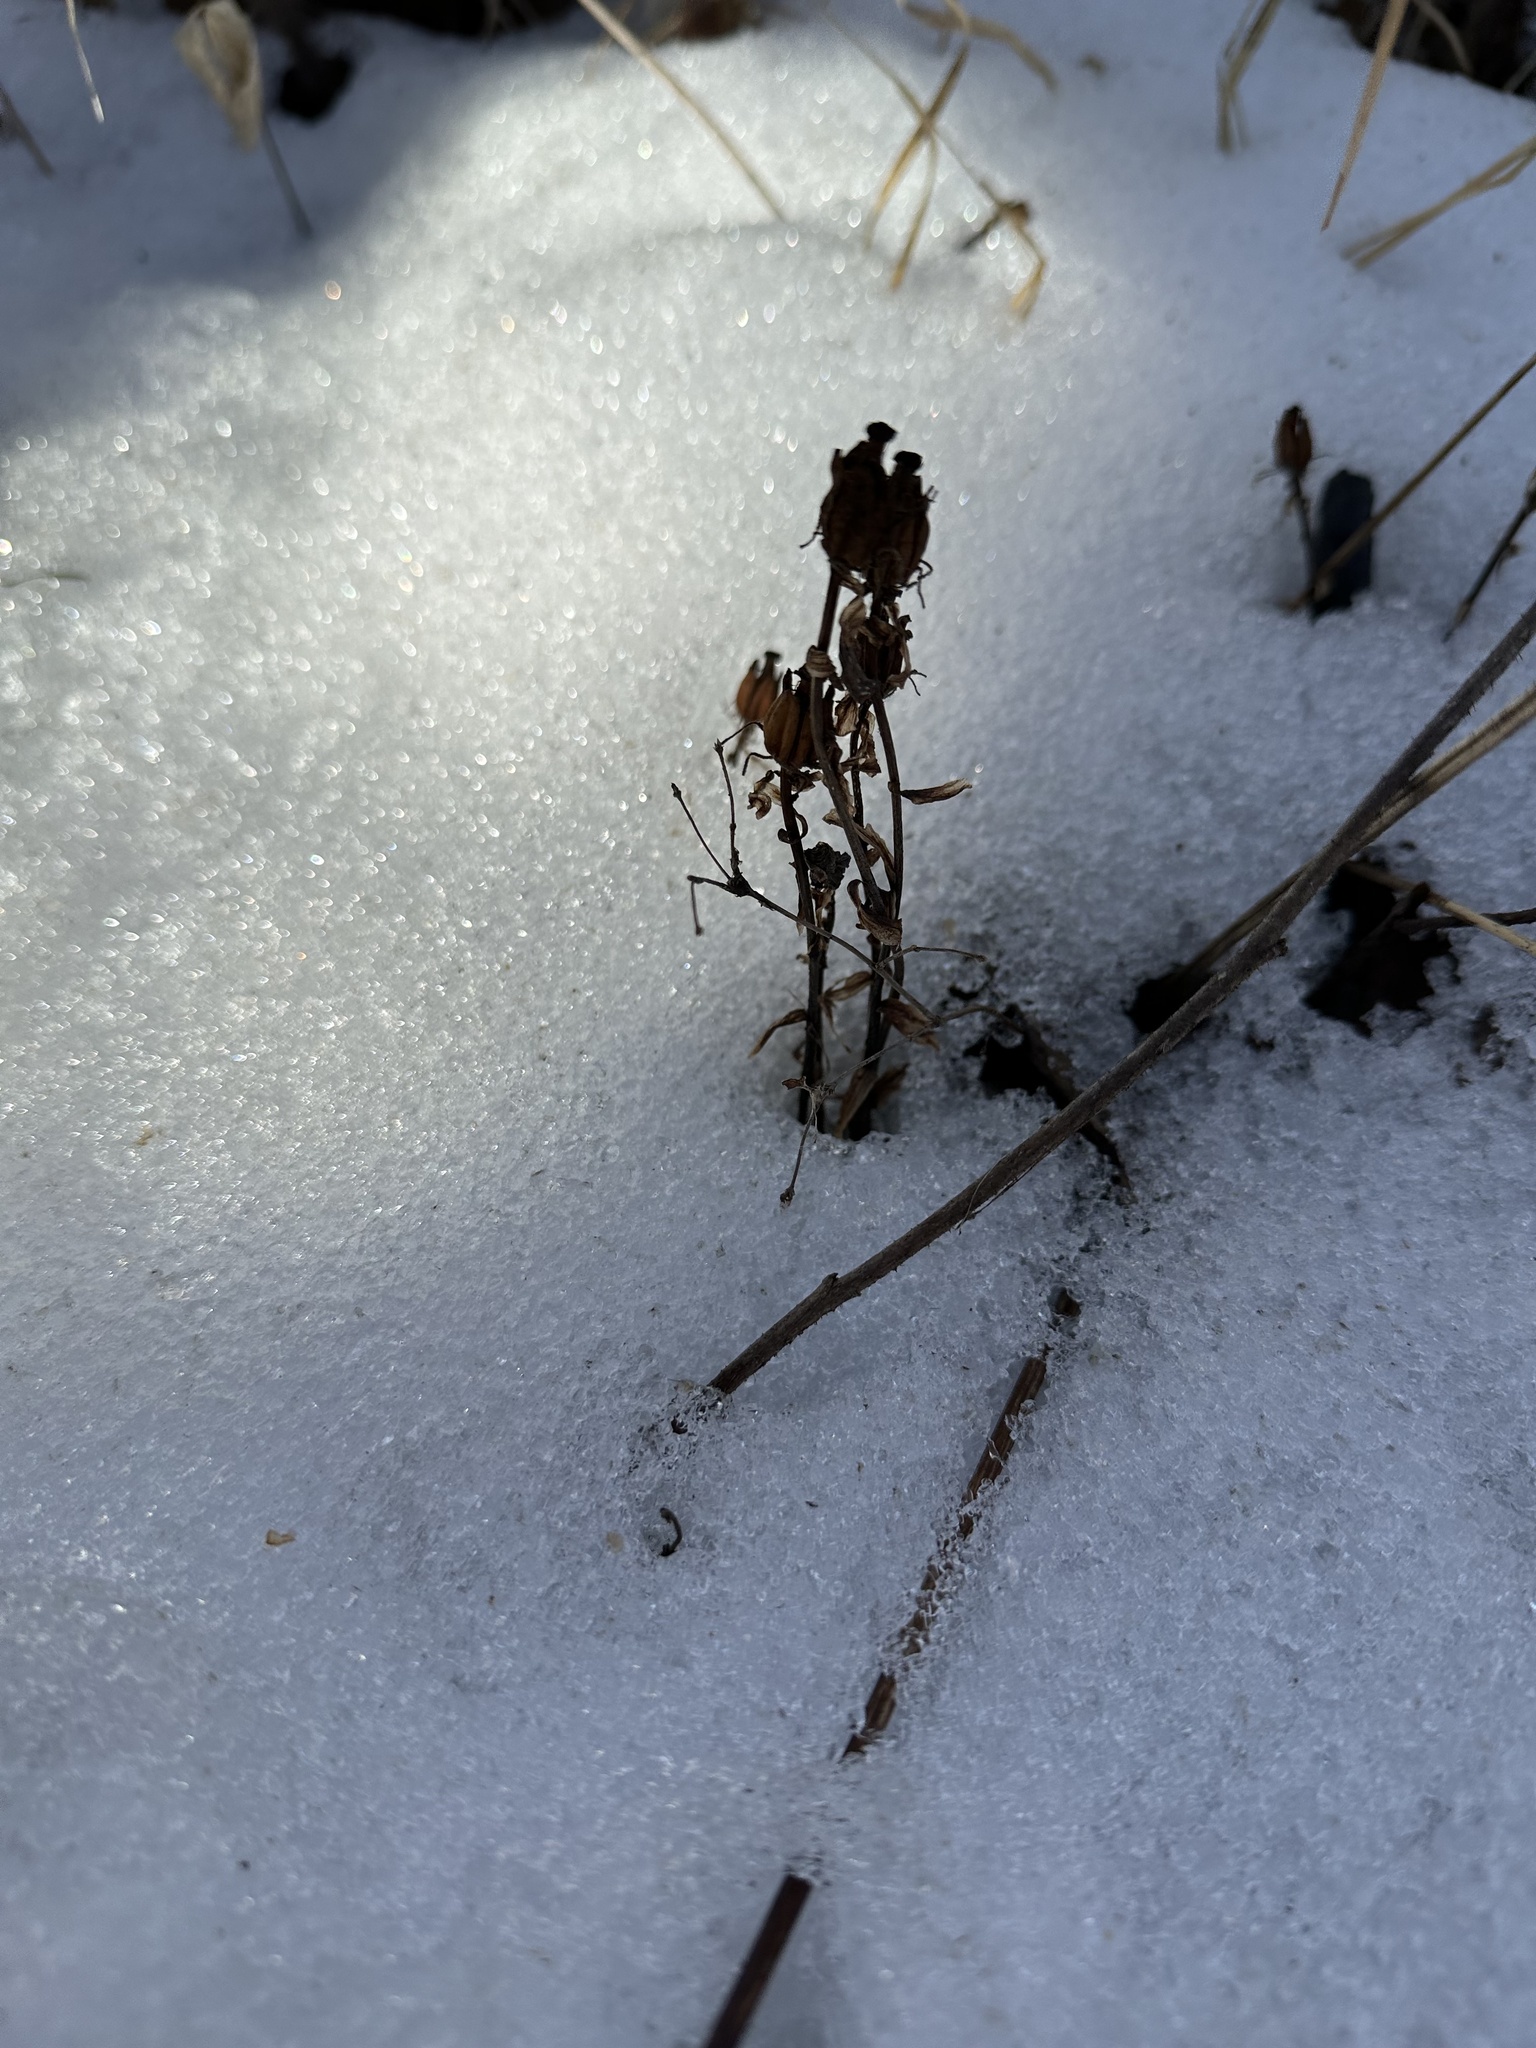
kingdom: Plantae
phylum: Tracheophyta
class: Magnoliopsida
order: Ericales
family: Ericaceae
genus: Monotropa
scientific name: Monotropa uniflora
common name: Convulsion root
